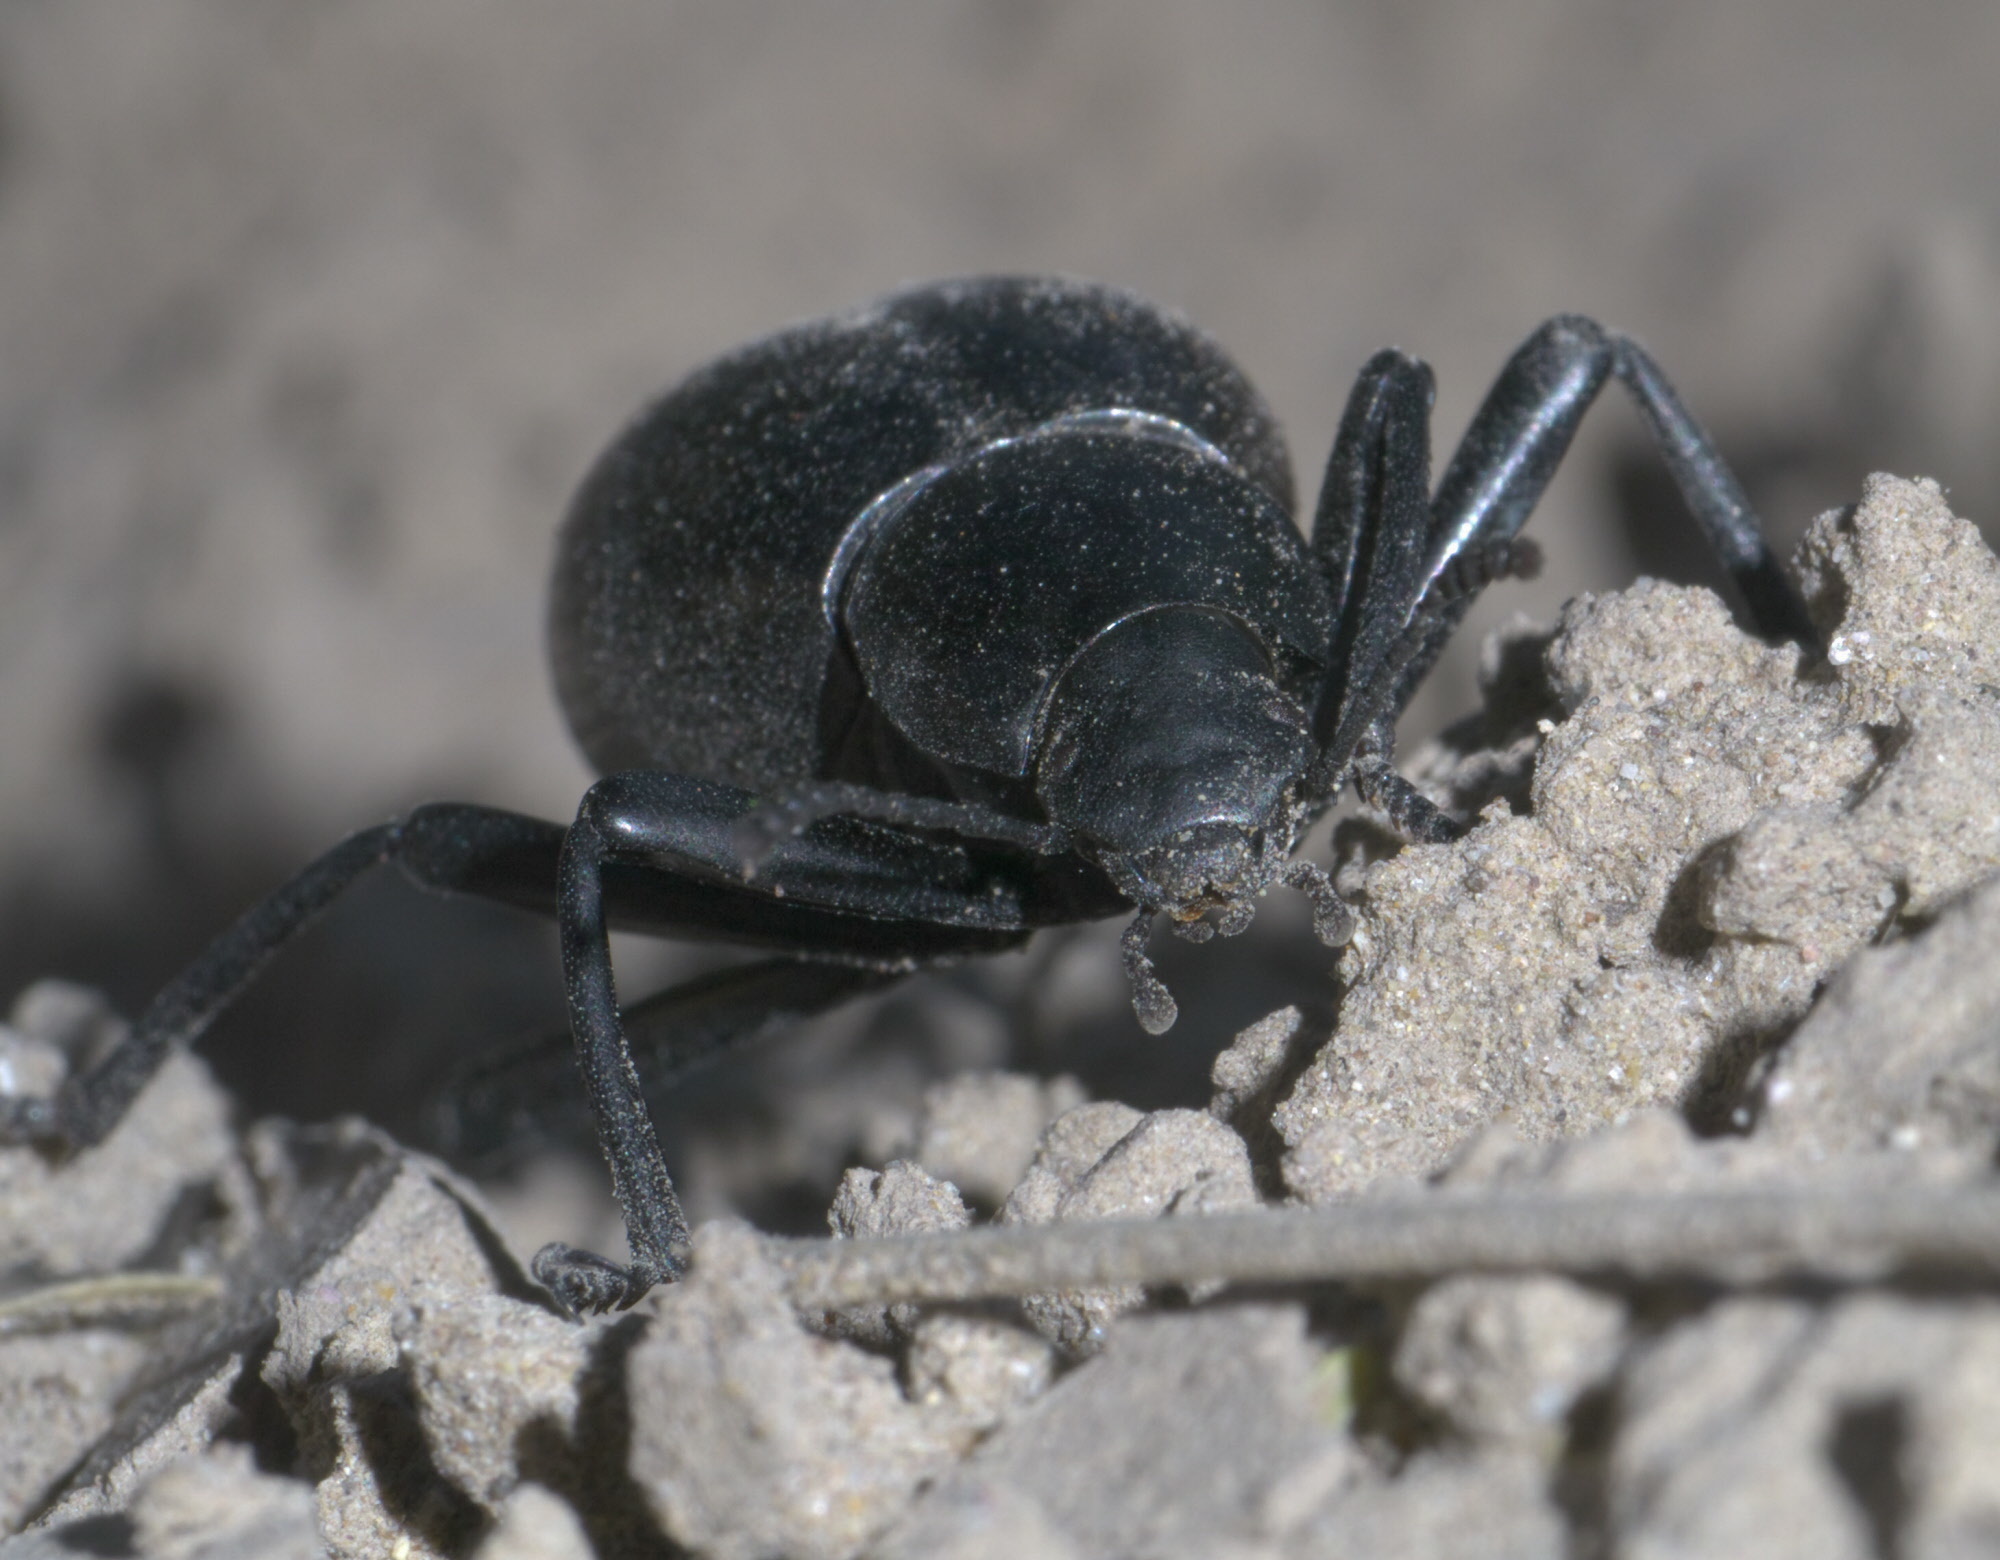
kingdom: Animalia
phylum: Arthropoda
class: Insecta
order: Coleoptera
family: Tenebrionidae
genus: Eleodes
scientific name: Eleodes spinipes
